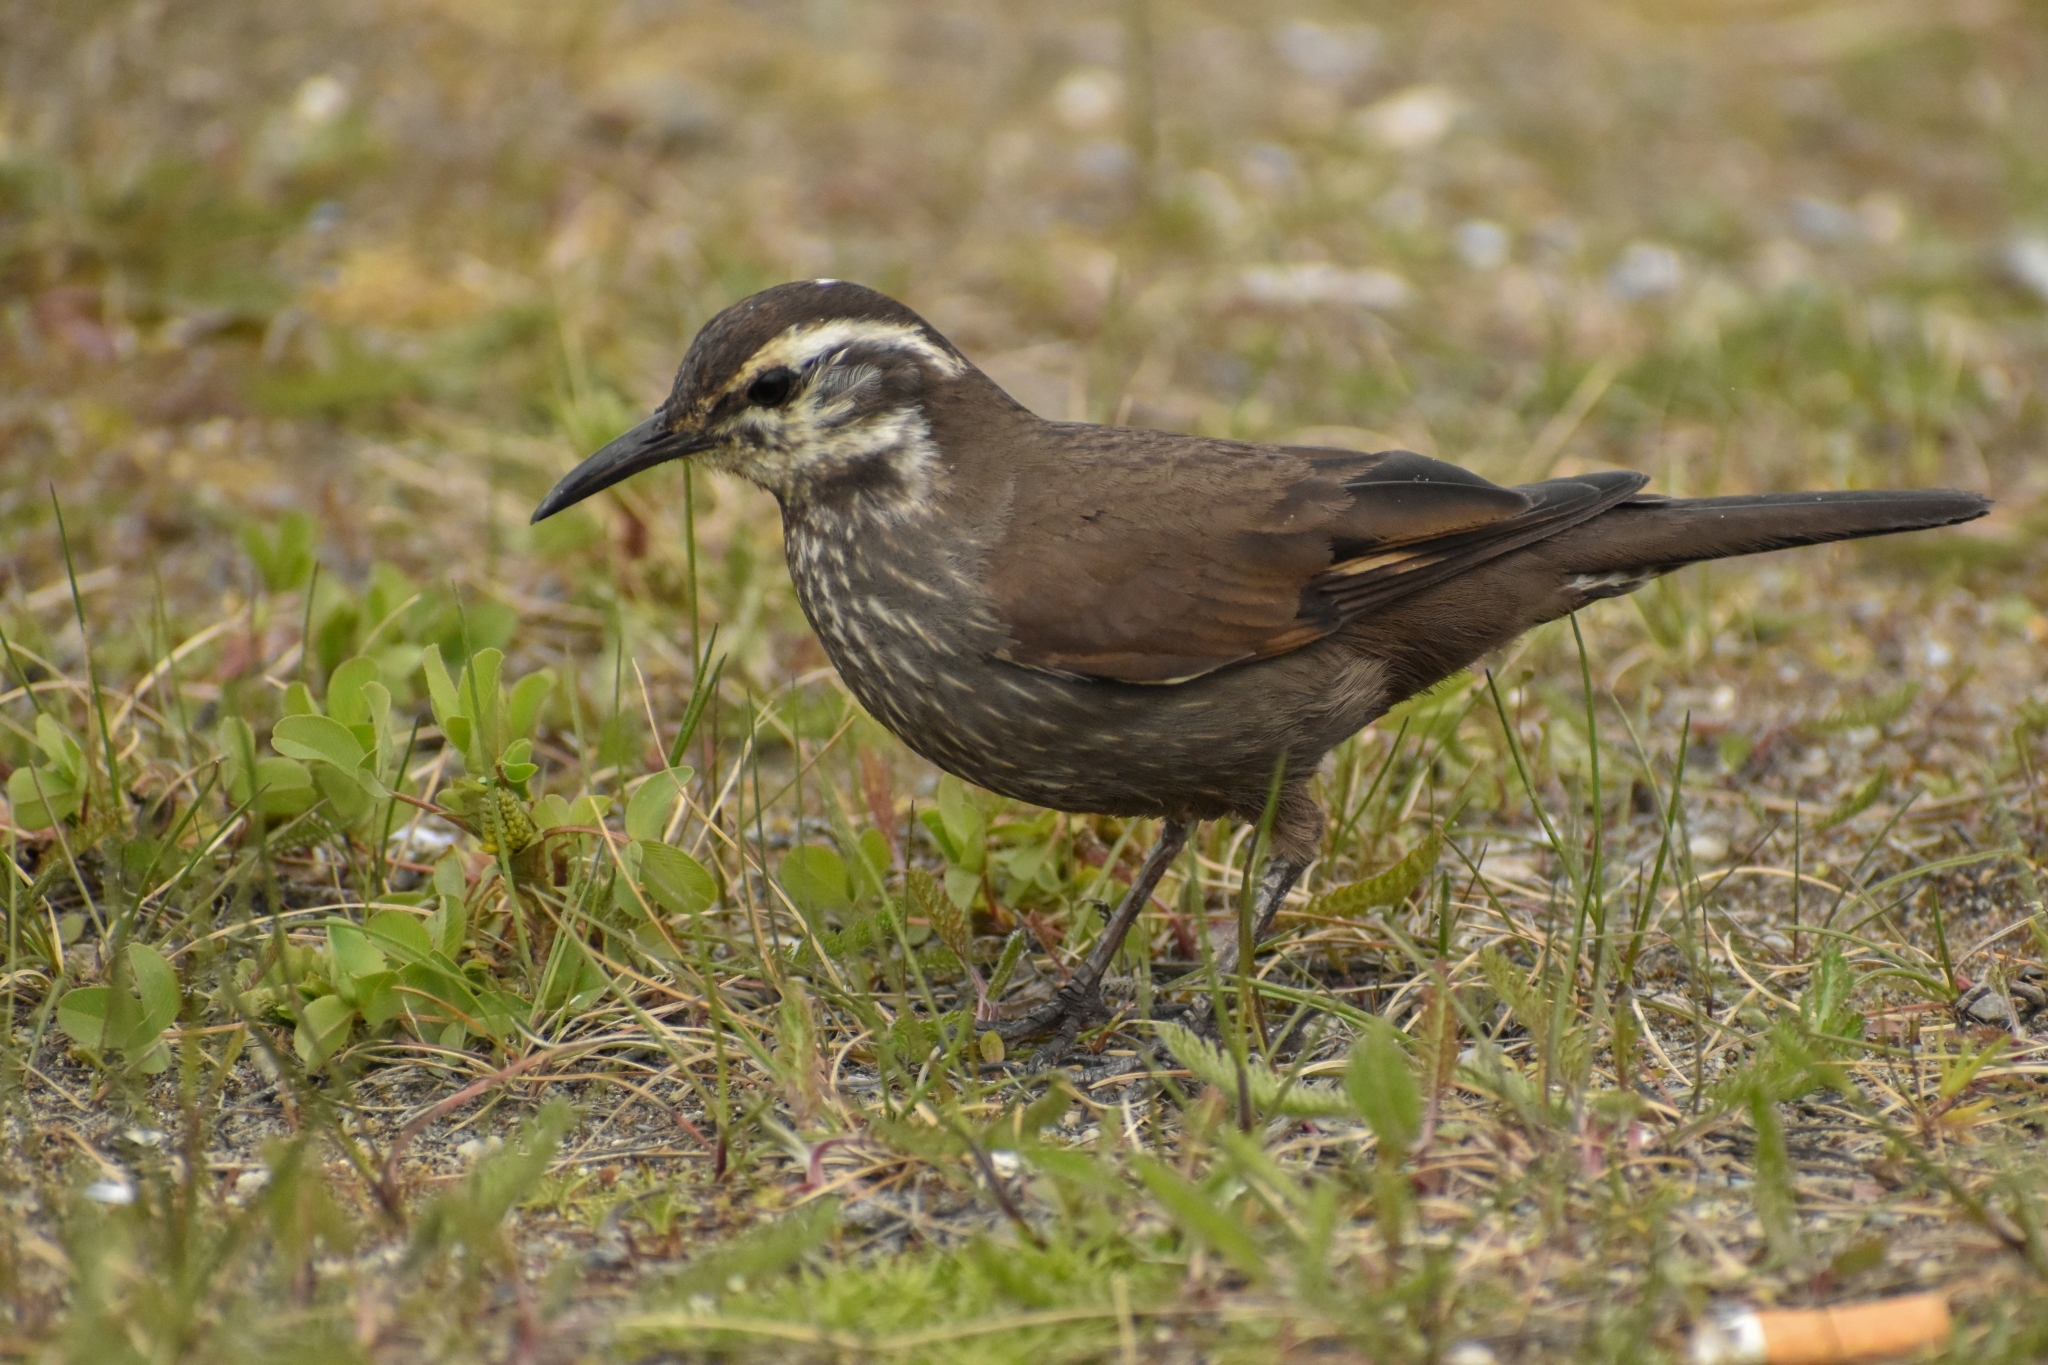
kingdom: Animalia
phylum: Chordata
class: Aves
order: Passeriformes
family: Furnariidae
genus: Cinclodes
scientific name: Cinclodes patagonicus
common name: Dark-bellied cinclodes
